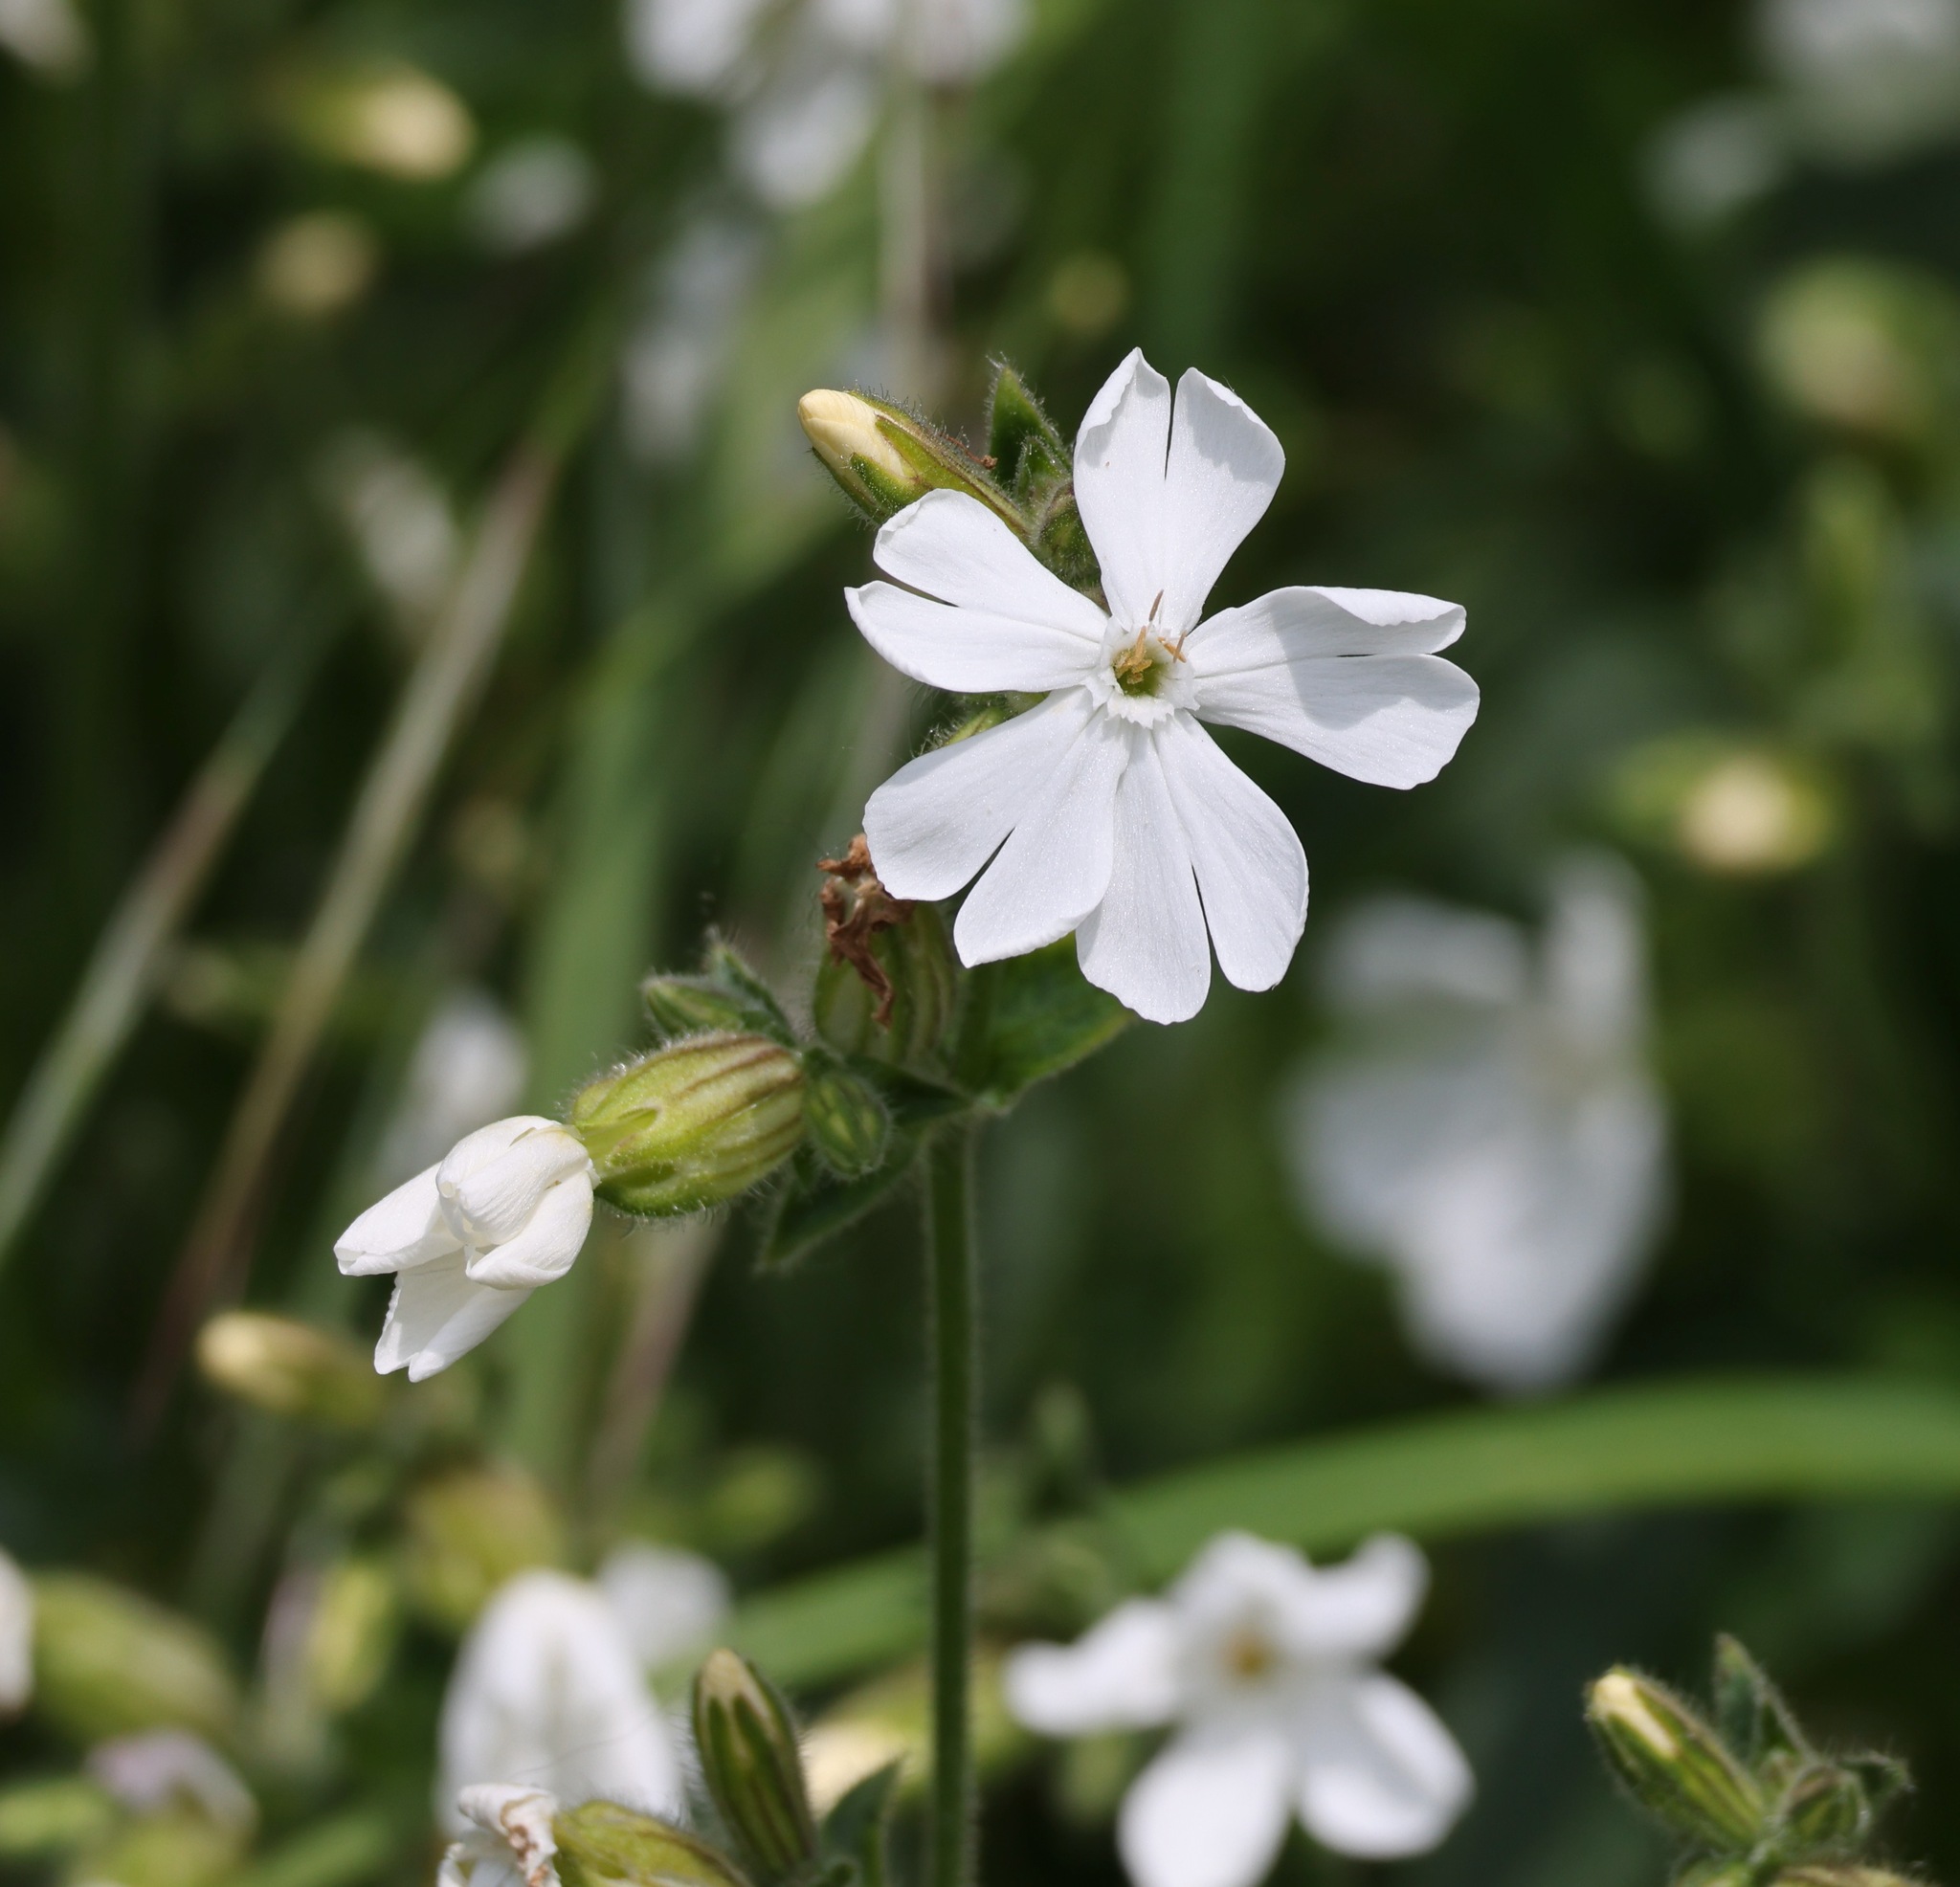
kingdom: Plantae
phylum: Tracheophyta
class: Magnoliopsida
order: Caryophyllales
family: Caryophyllaceae
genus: Silene
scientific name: Silene latifolia
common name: White campion
